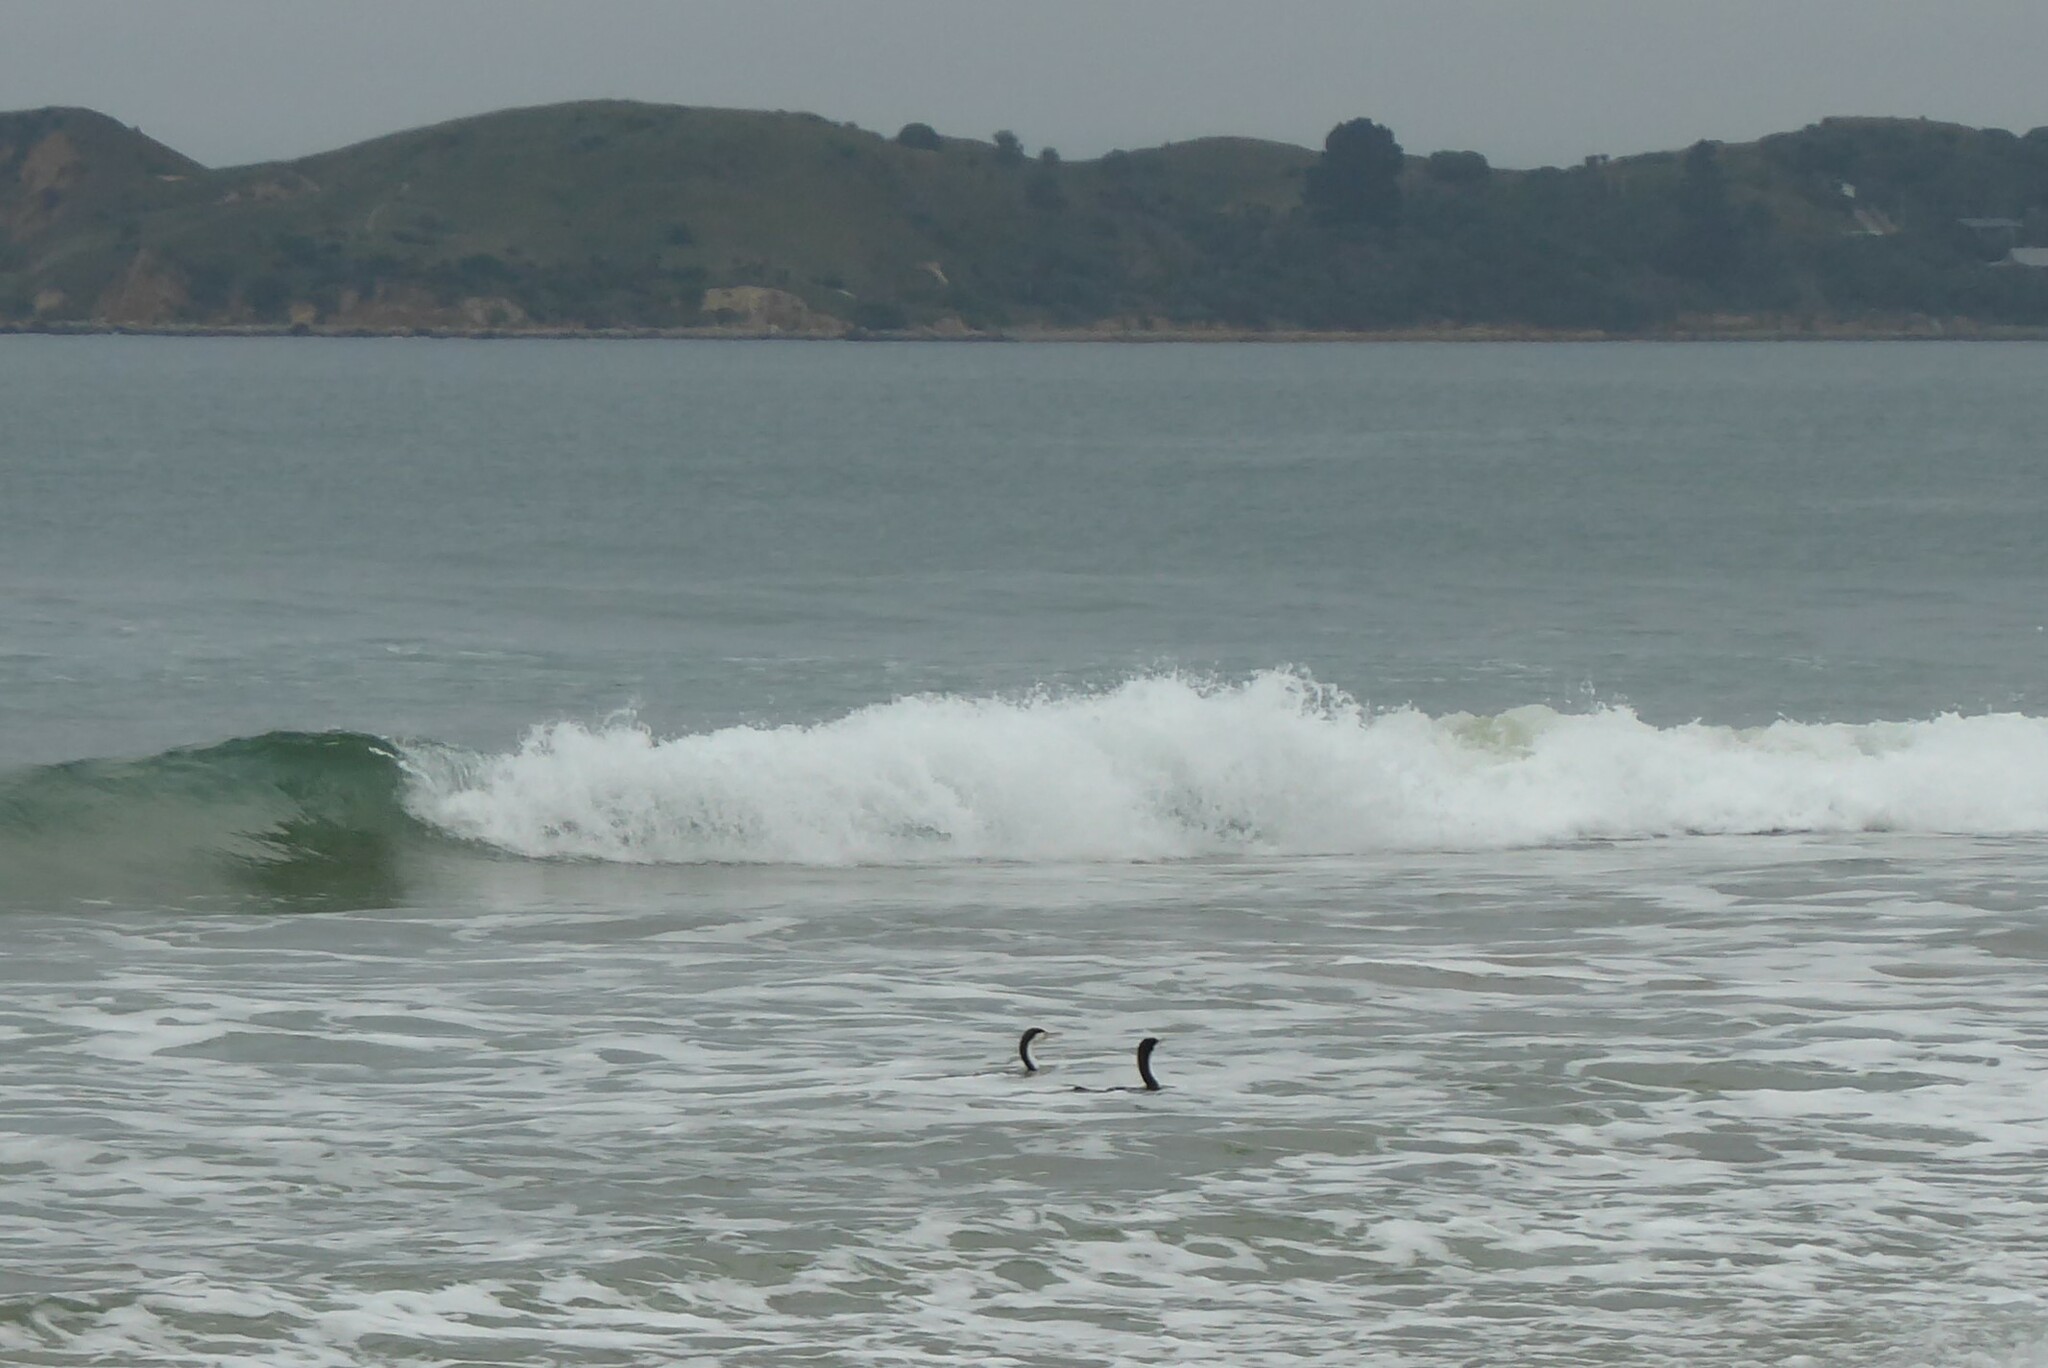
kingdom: Animalia
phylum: Chordata
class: Aves
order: Suliformes
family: Phalacrocoracidae
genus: Phalacrocorax
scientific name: Phalacrocorax varius
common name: Pied cormorant
